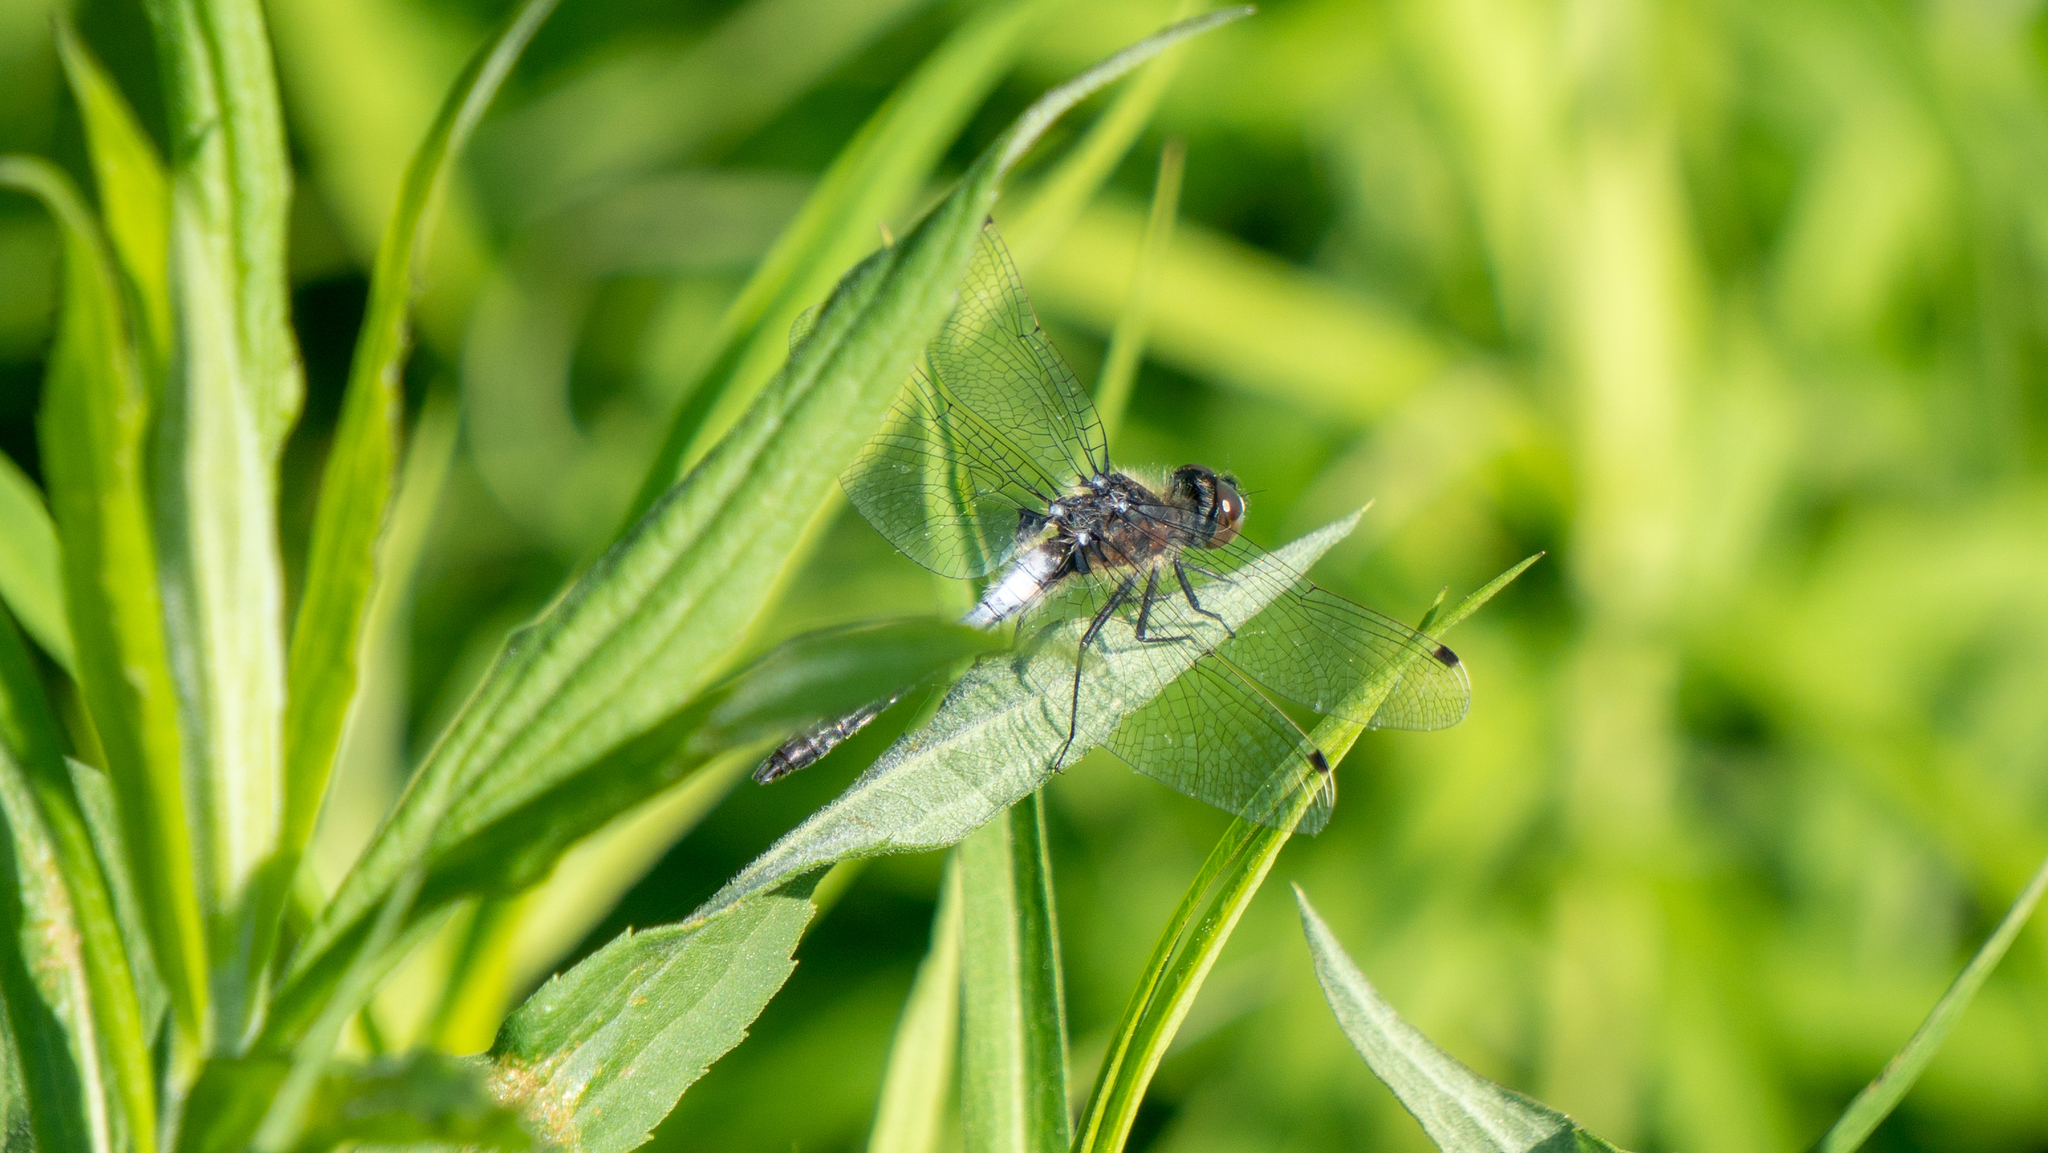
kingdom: Animalia
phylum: Arthropoda
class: Insecta
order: Odonata
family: Libellulidae
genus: Leucorrhinia
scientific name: Leucorrhinia frigida
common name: Frosted whiteface
